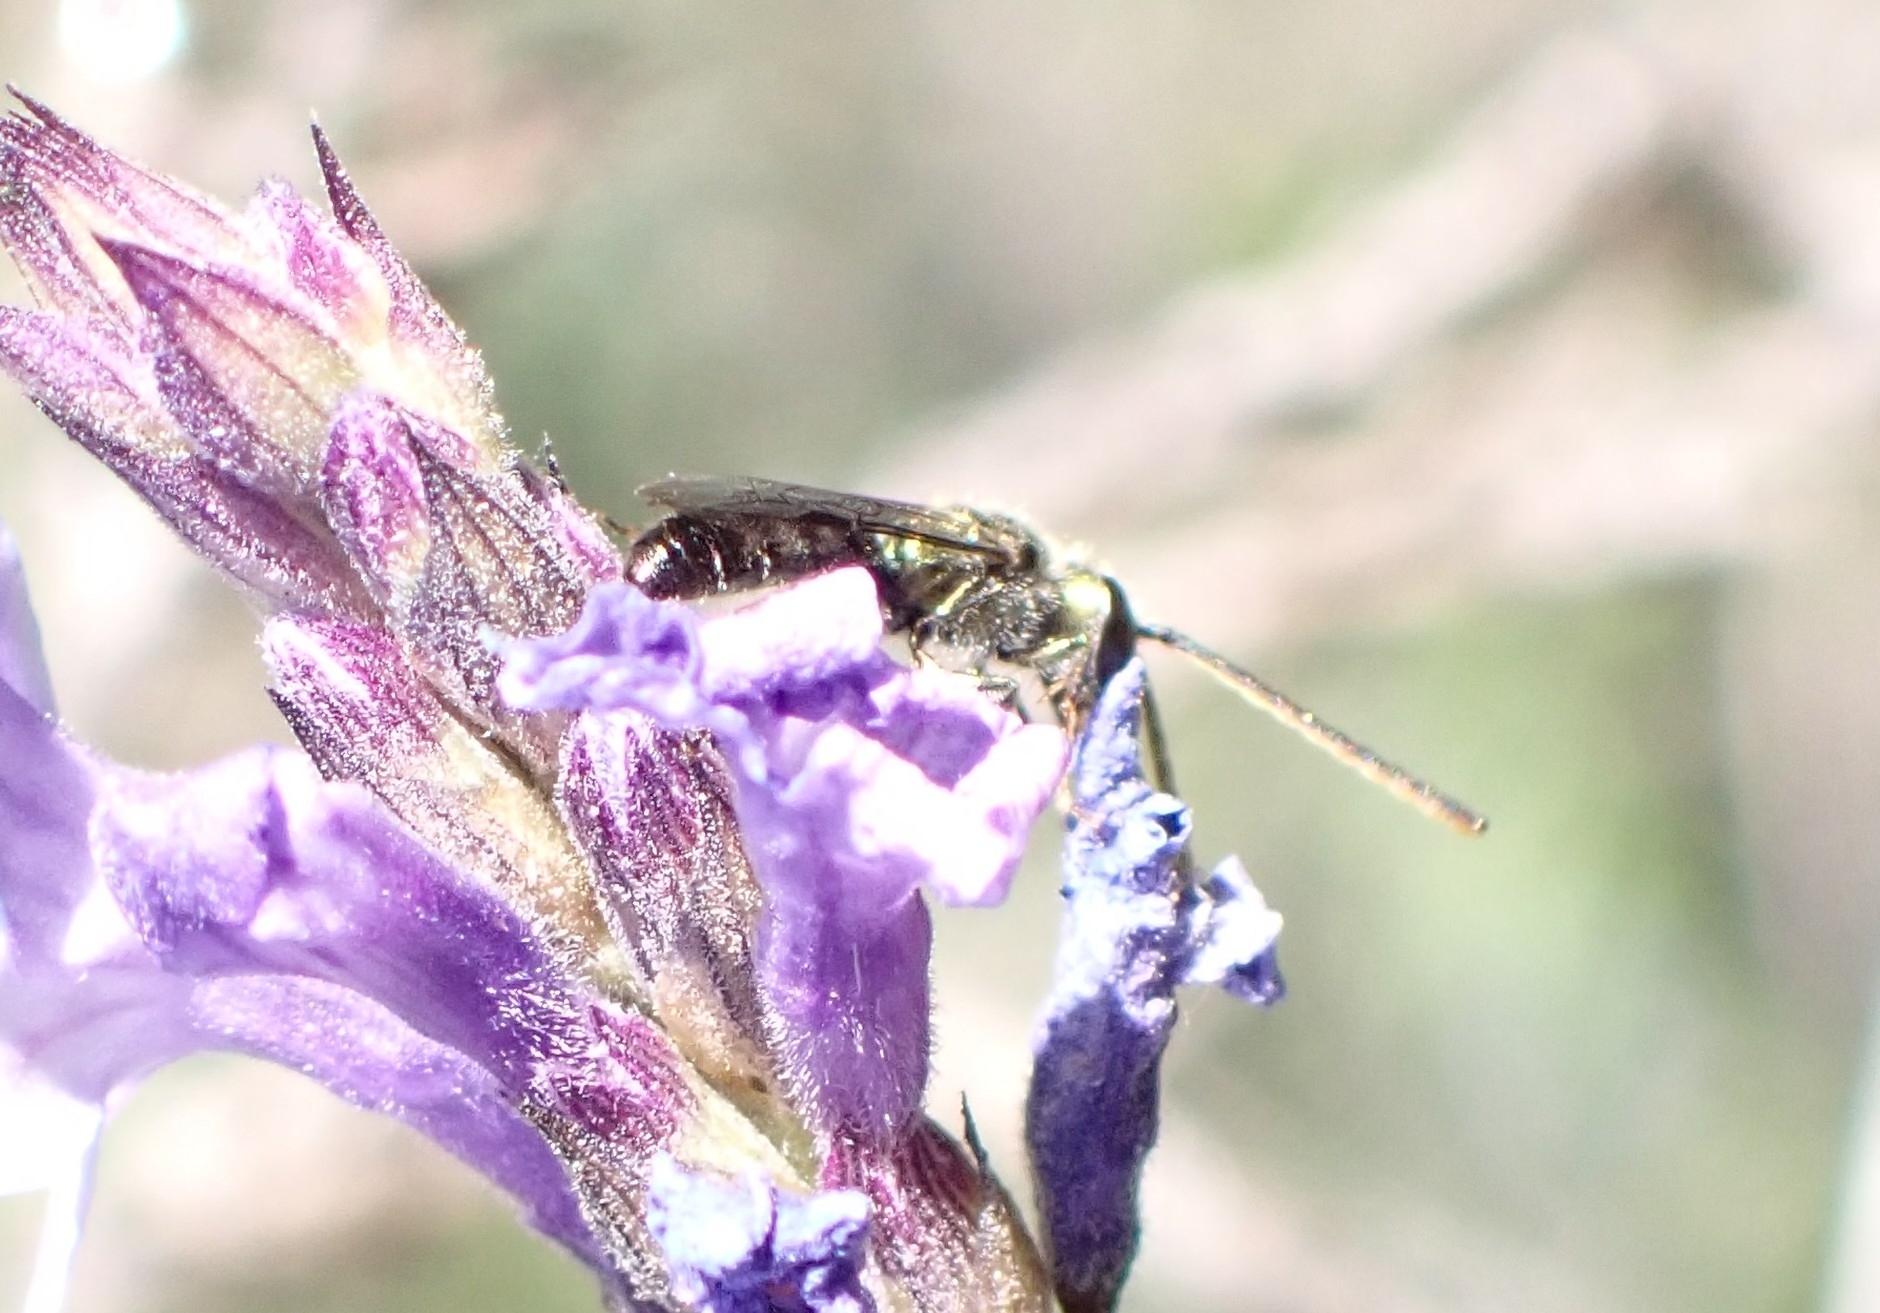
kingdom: Animalia
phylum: Arthropoda
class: Insecta
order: Hymenoptera
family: Halictidae
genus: Lasioglossum
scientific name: Lasioglossum loetum
